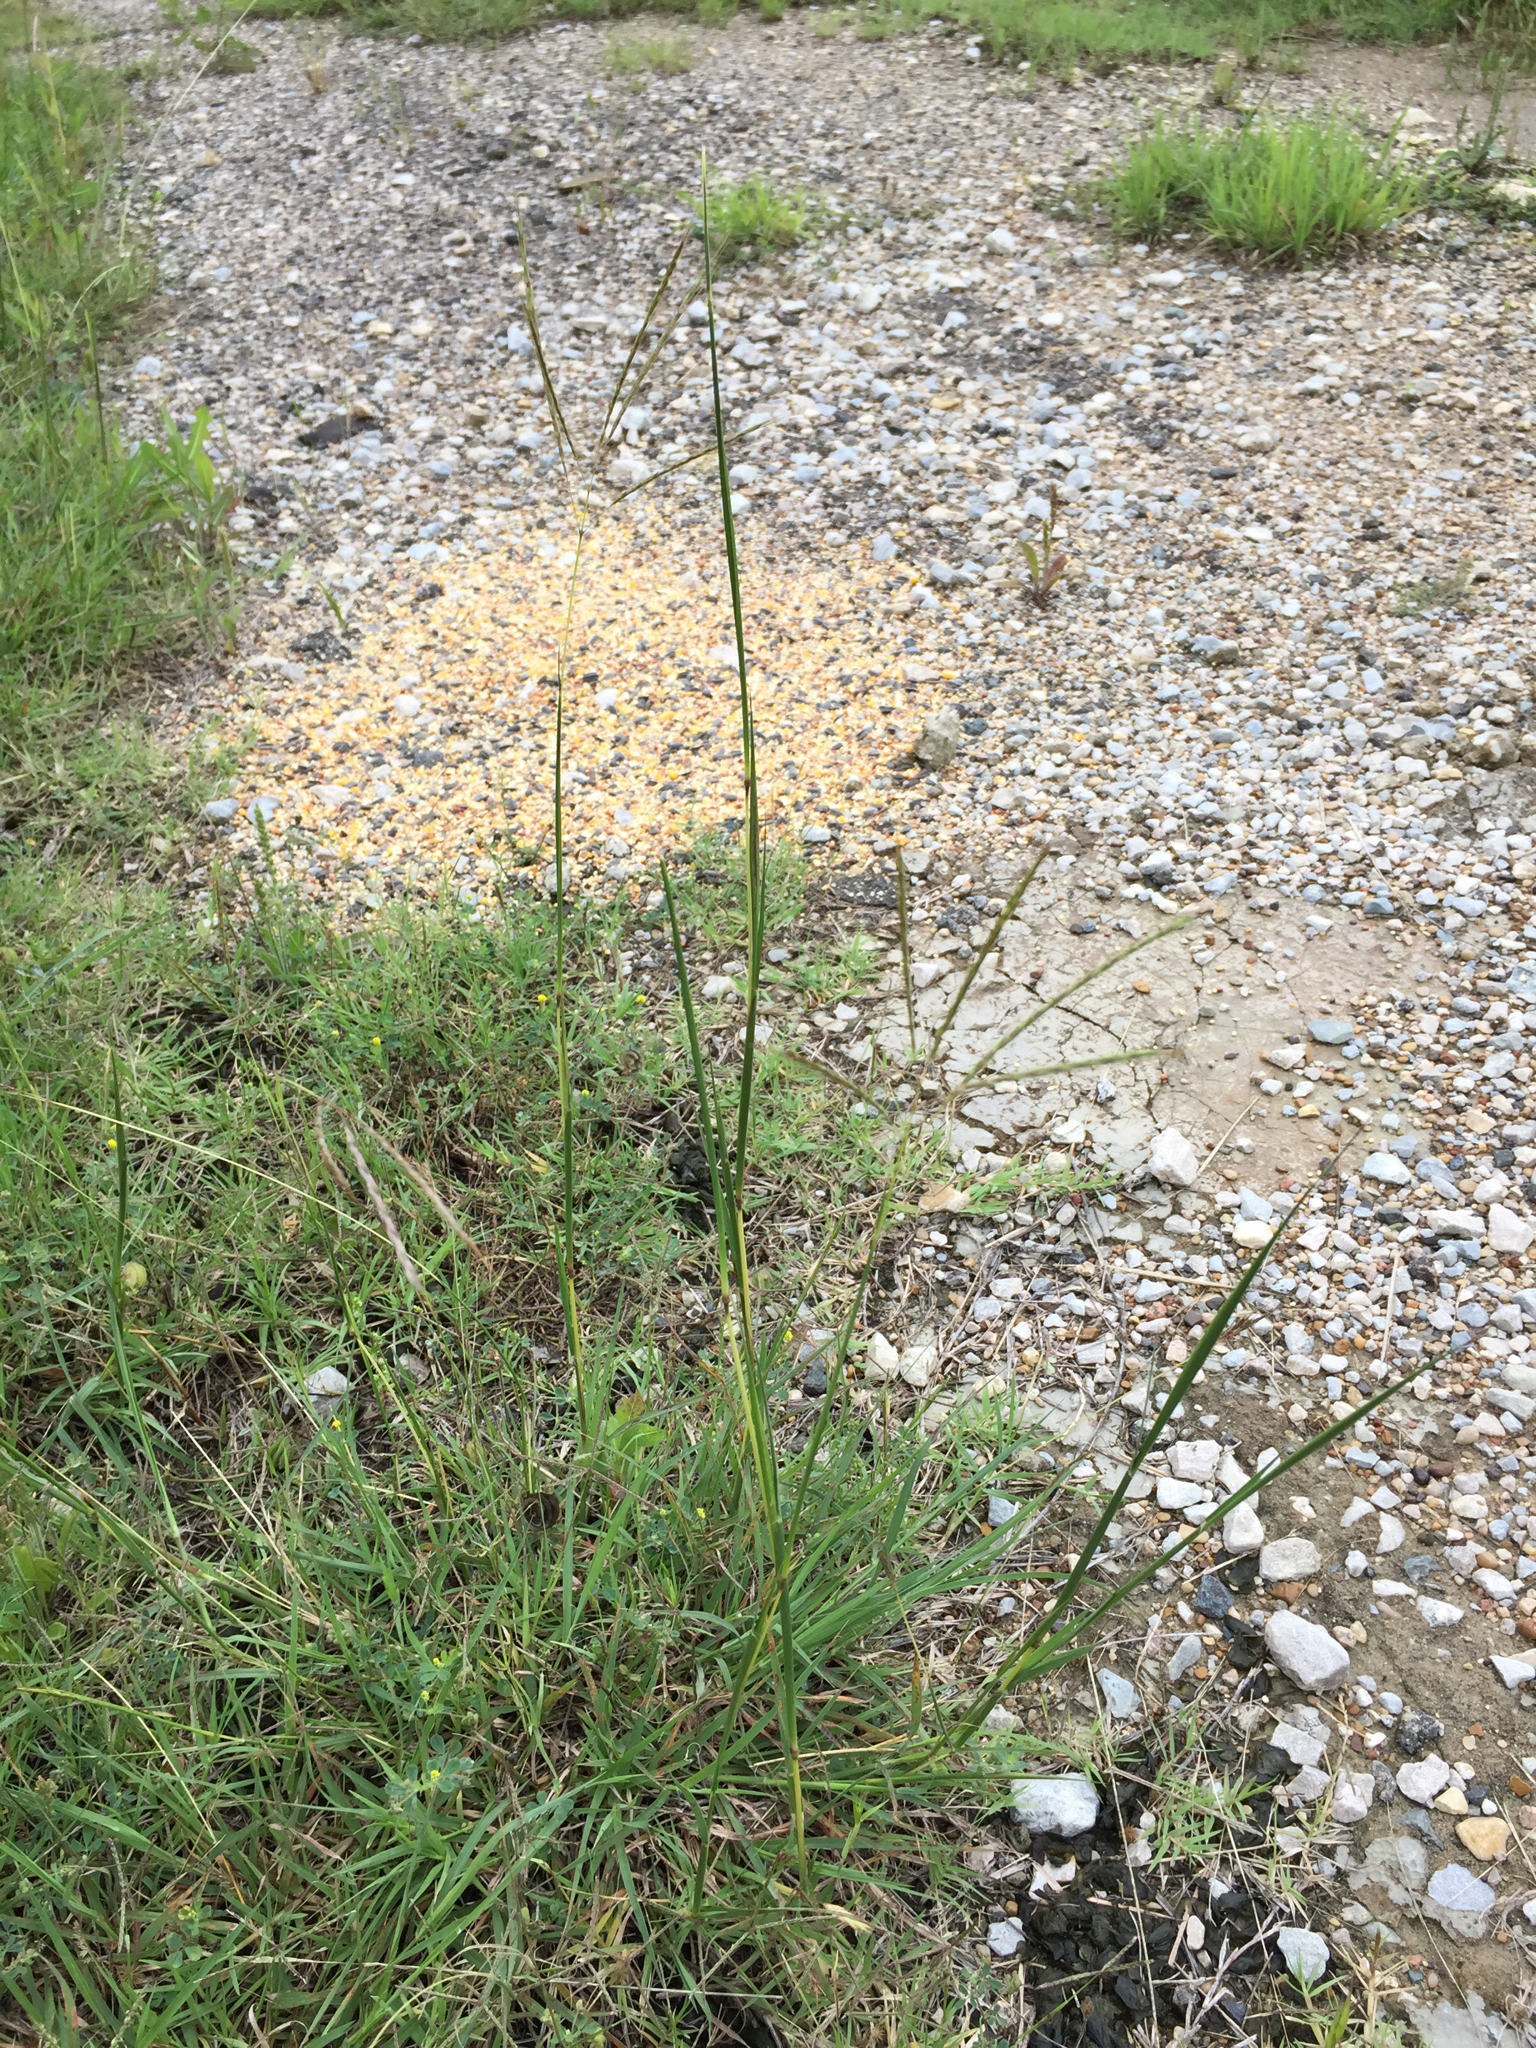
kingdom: Plantae
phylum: Tracheophyta
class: Liliopsida
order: Poales
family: Poaceae
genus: Bothriochloa
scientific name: Bothriochloa ischaemum
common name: Yellow bluestem
